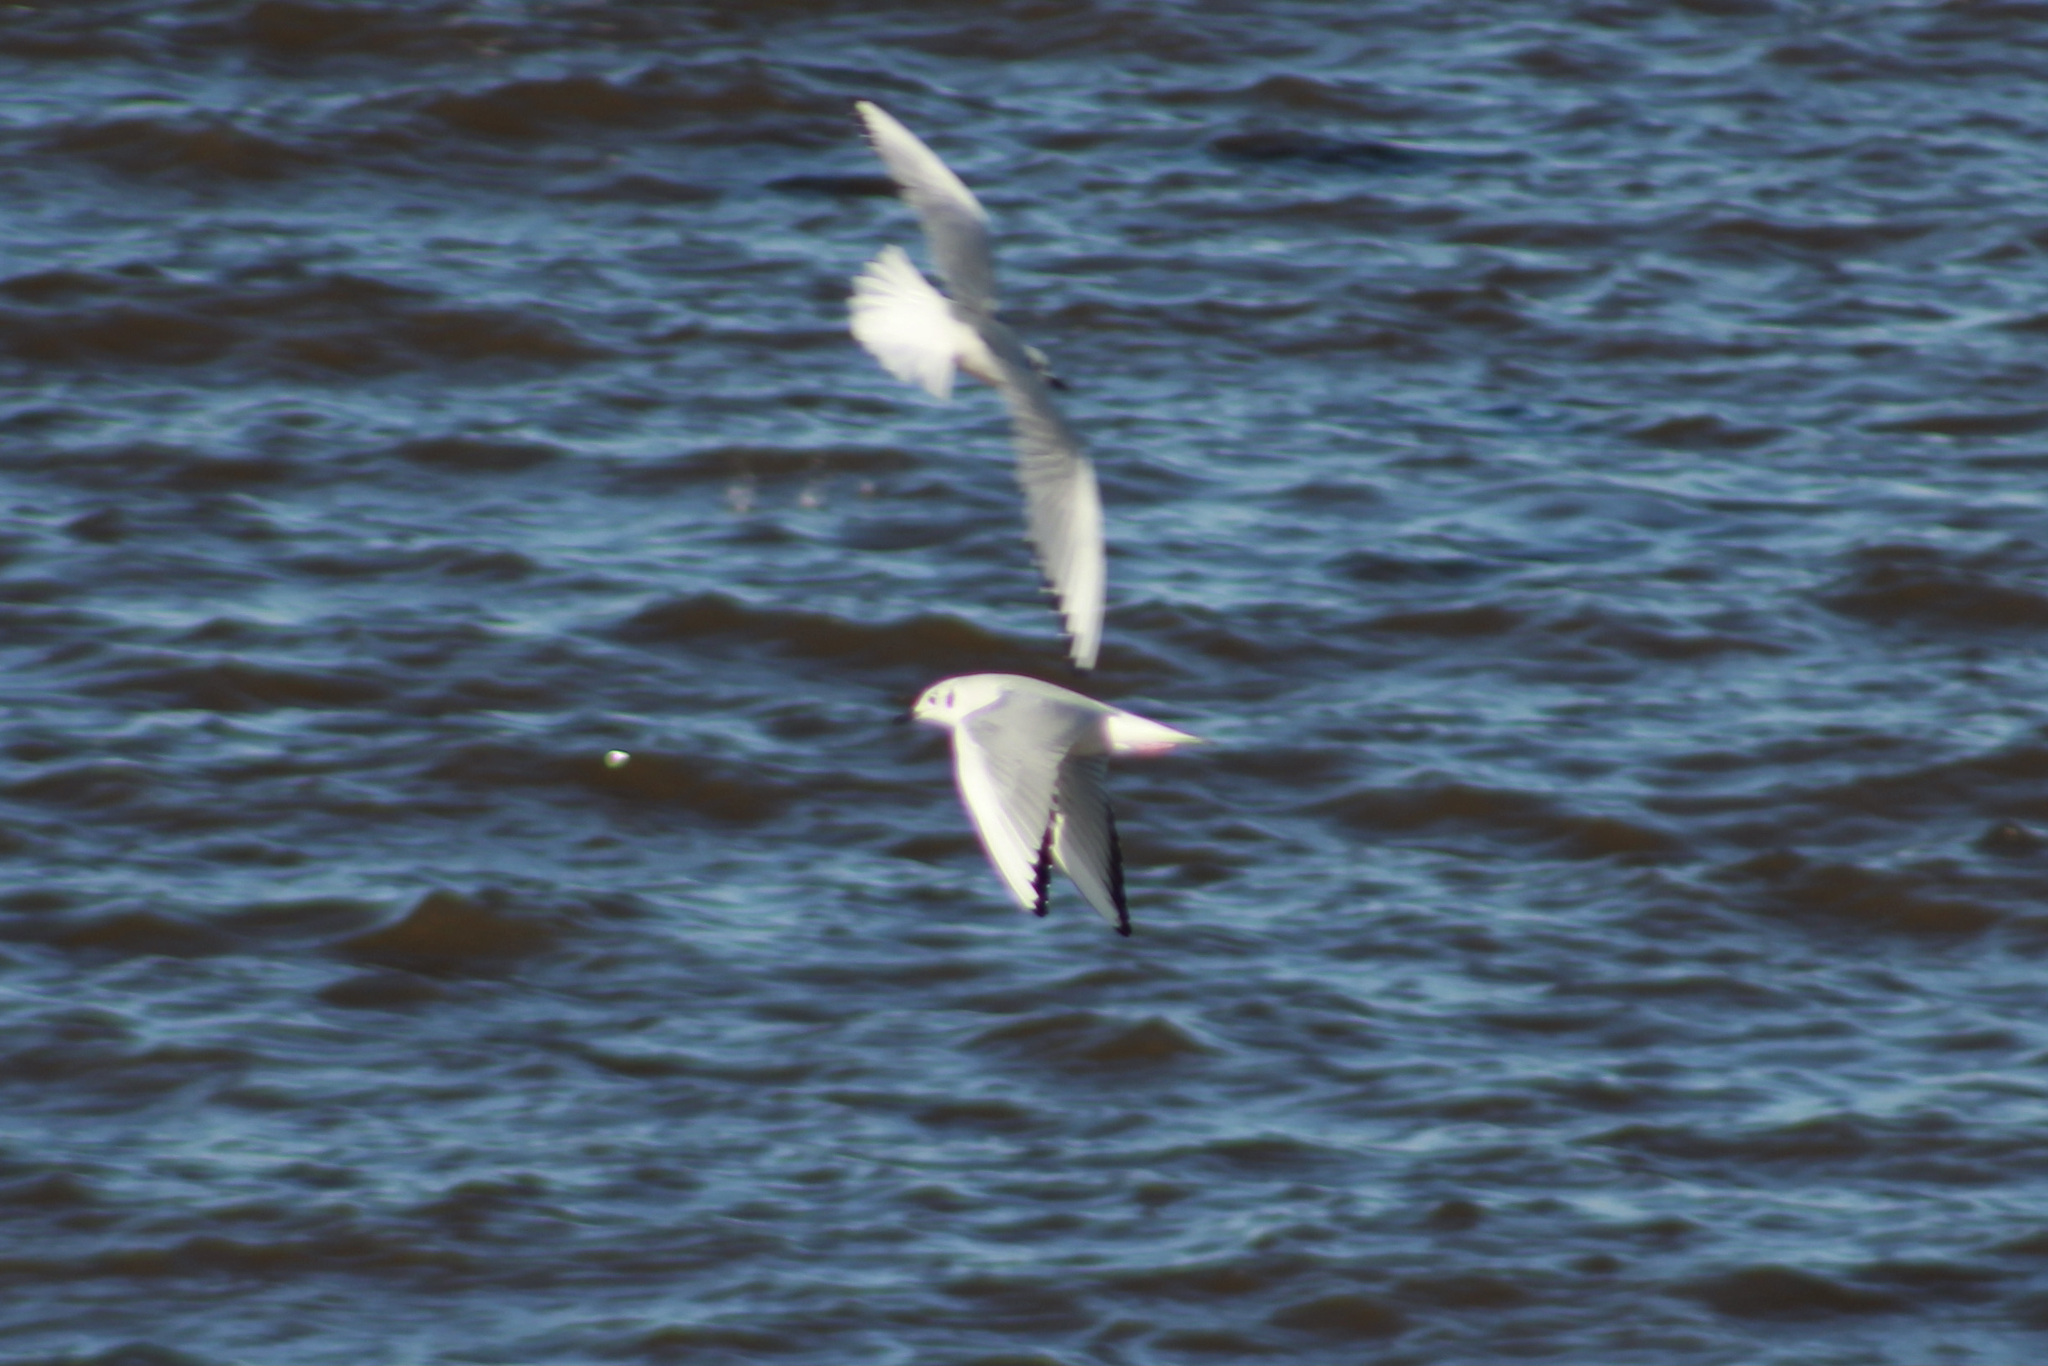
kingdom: Animalia
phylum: Chordata
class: Aves
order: Charadriiformes
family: Laridae
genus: Chroicocephalus
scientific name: Chroicocephalus philadelphia
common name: Bonaparte's gull
